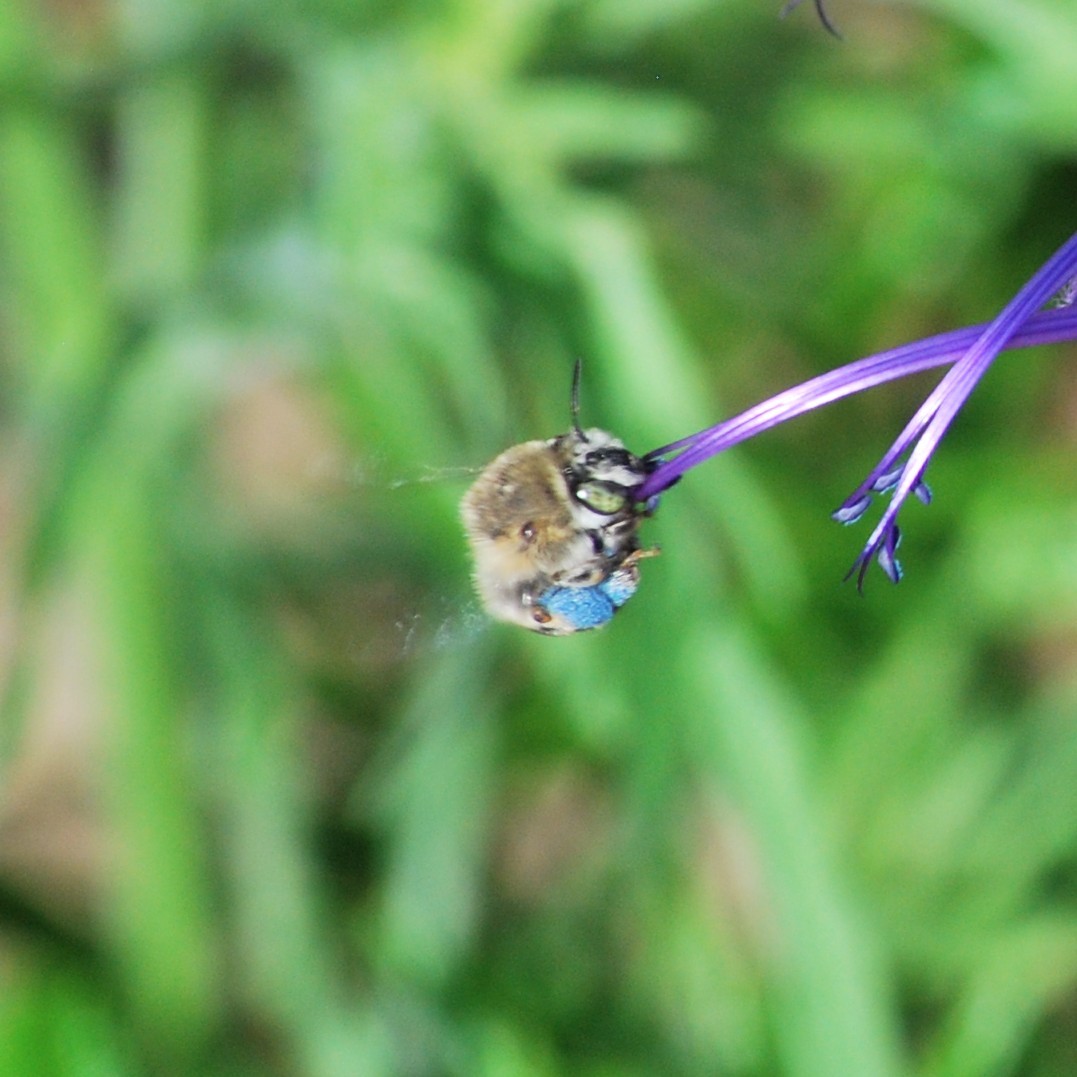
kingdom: Animalia
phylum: Arthropoda
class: Insecta
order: Hymenoptera
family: Apidae
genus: Anthophora
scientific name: Anthophora californica
